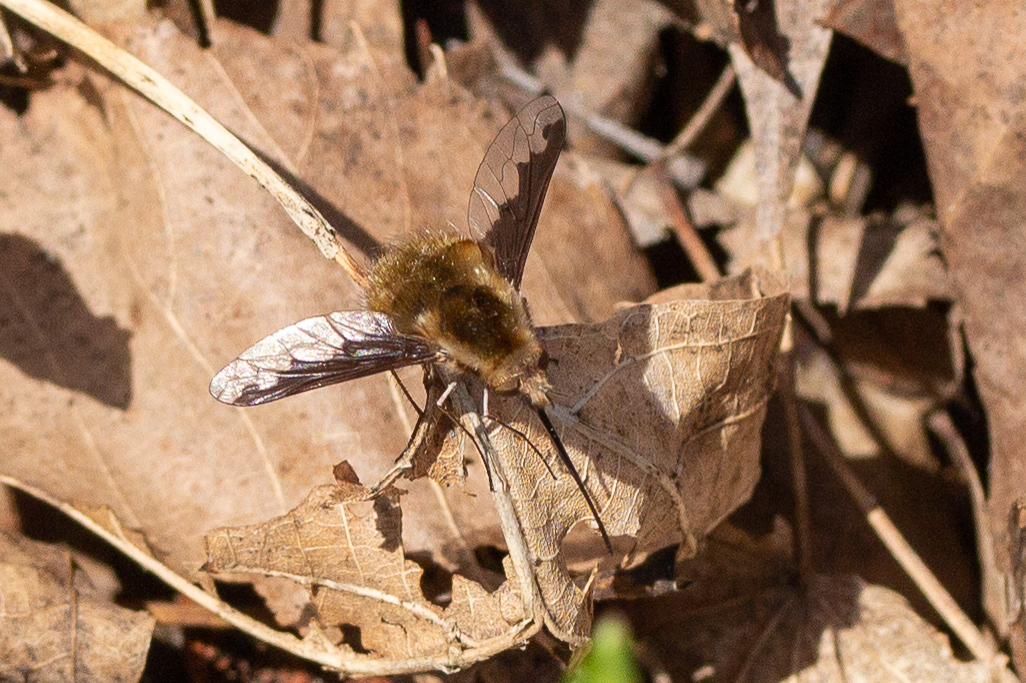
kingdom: Animalia
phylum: Arthropoda
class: Insecta
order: Diptera
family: Bombyliidae
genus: Bombylius
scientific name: Bombylius major
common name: Bee fly
